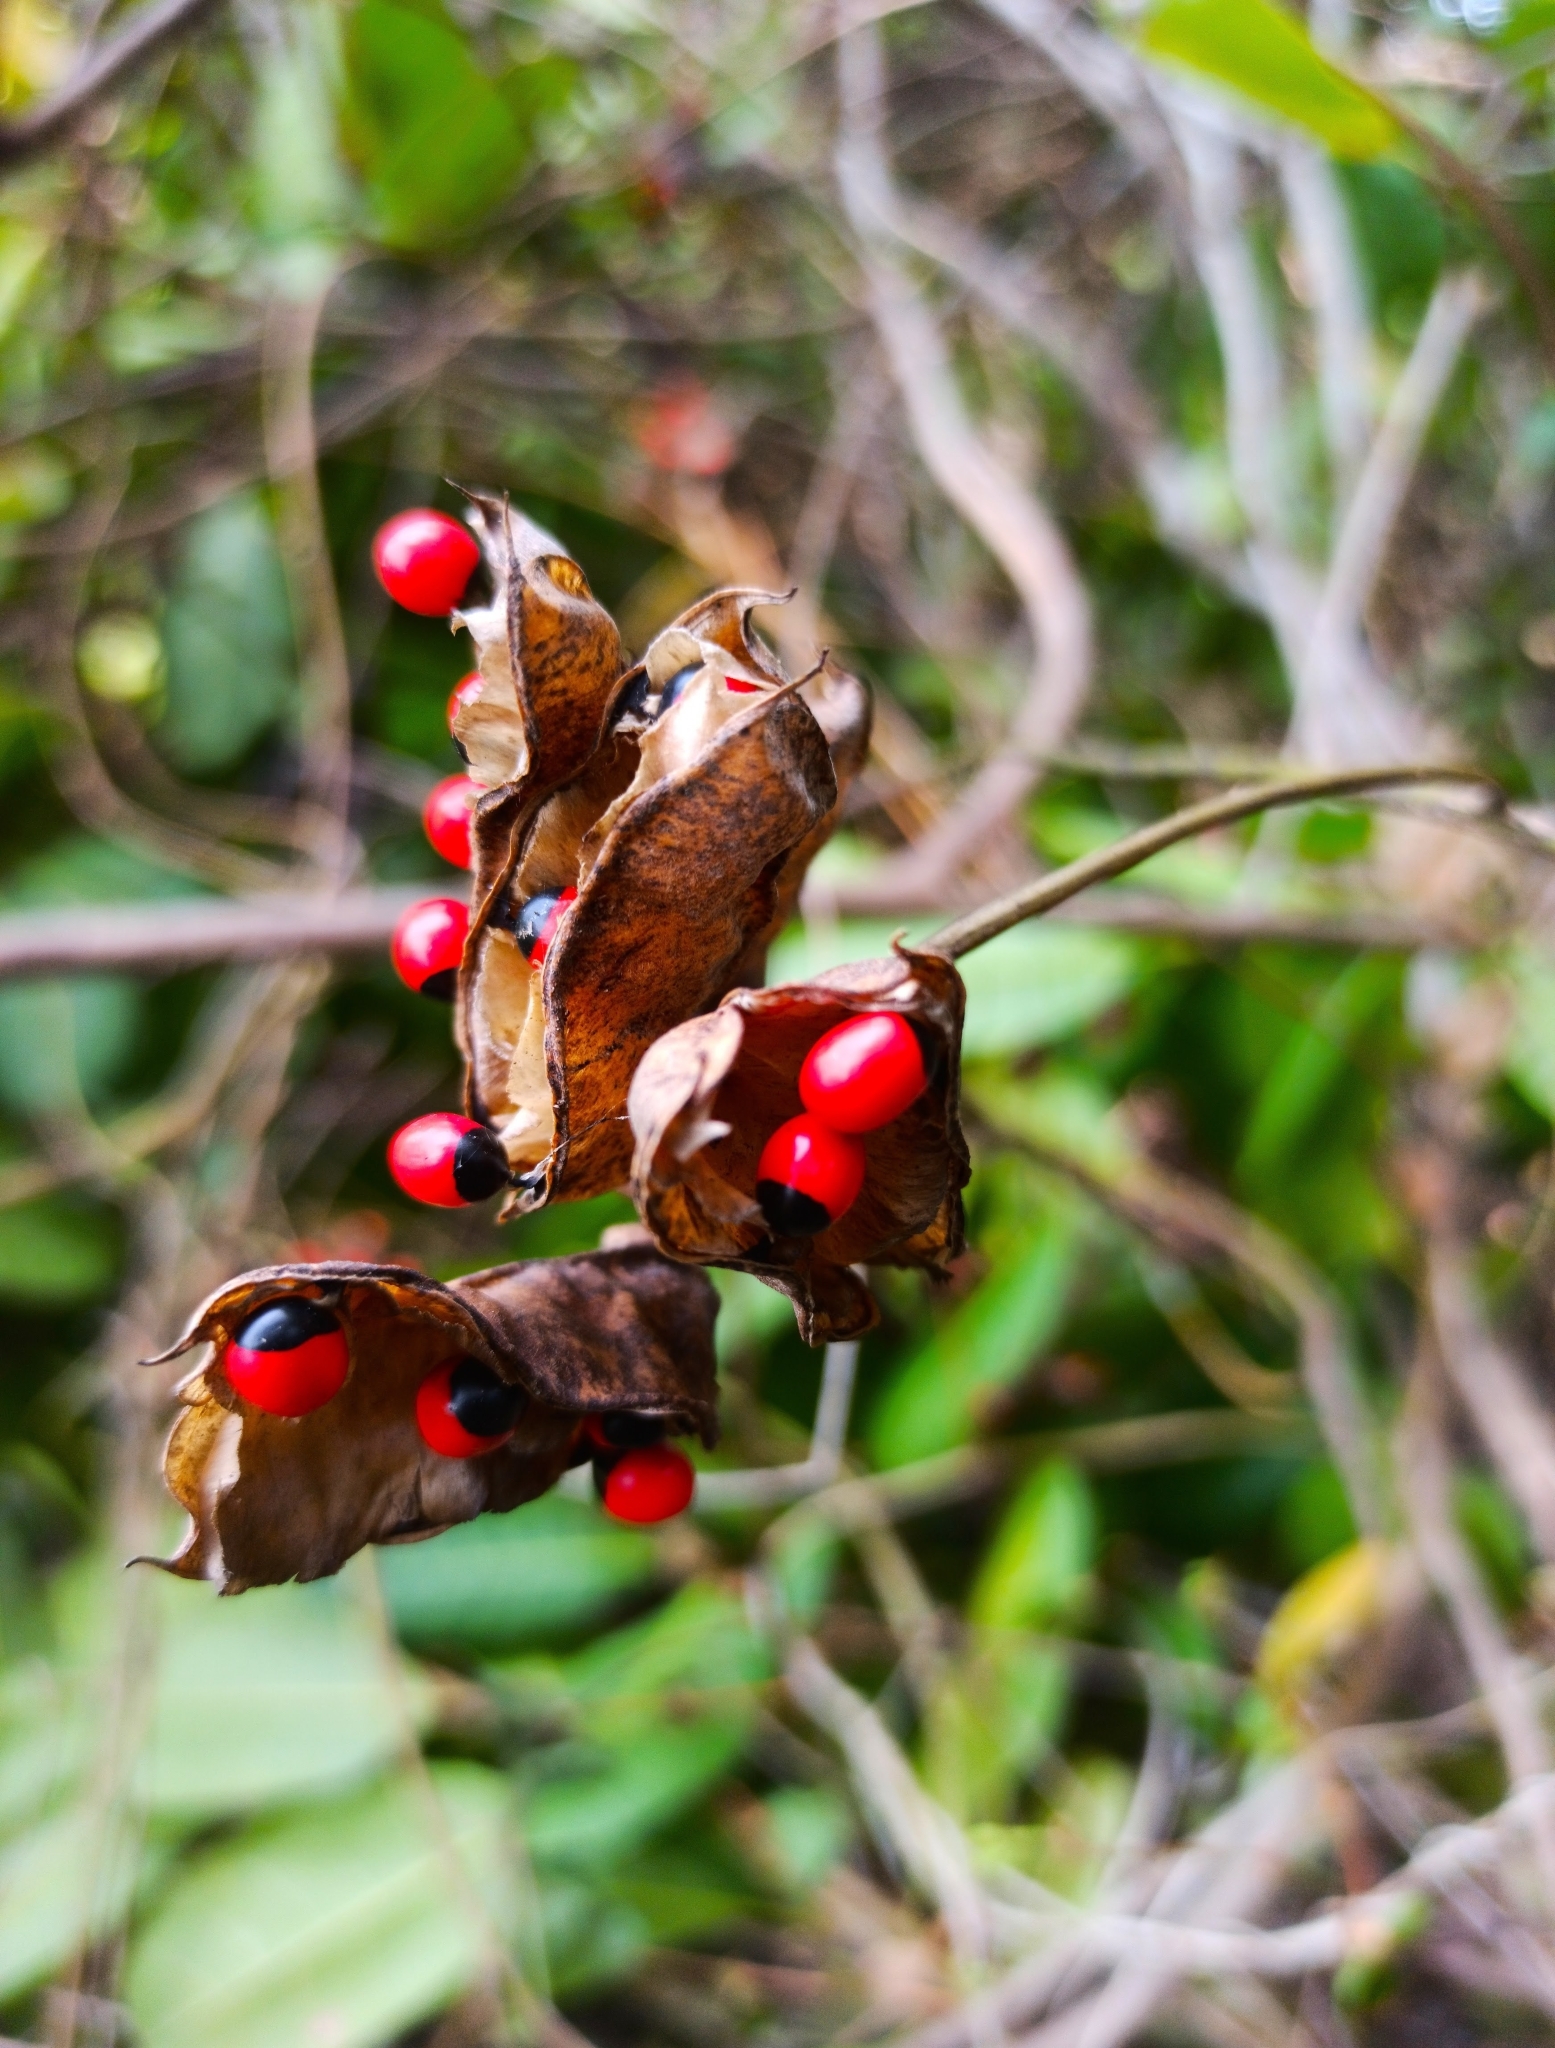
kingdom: Plantae
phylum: Tracheophyta
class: Magnoliopsida
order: Fabales
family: Fabaceae
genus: Abrus
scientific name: Abrus precatorius
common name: Rosarypea
